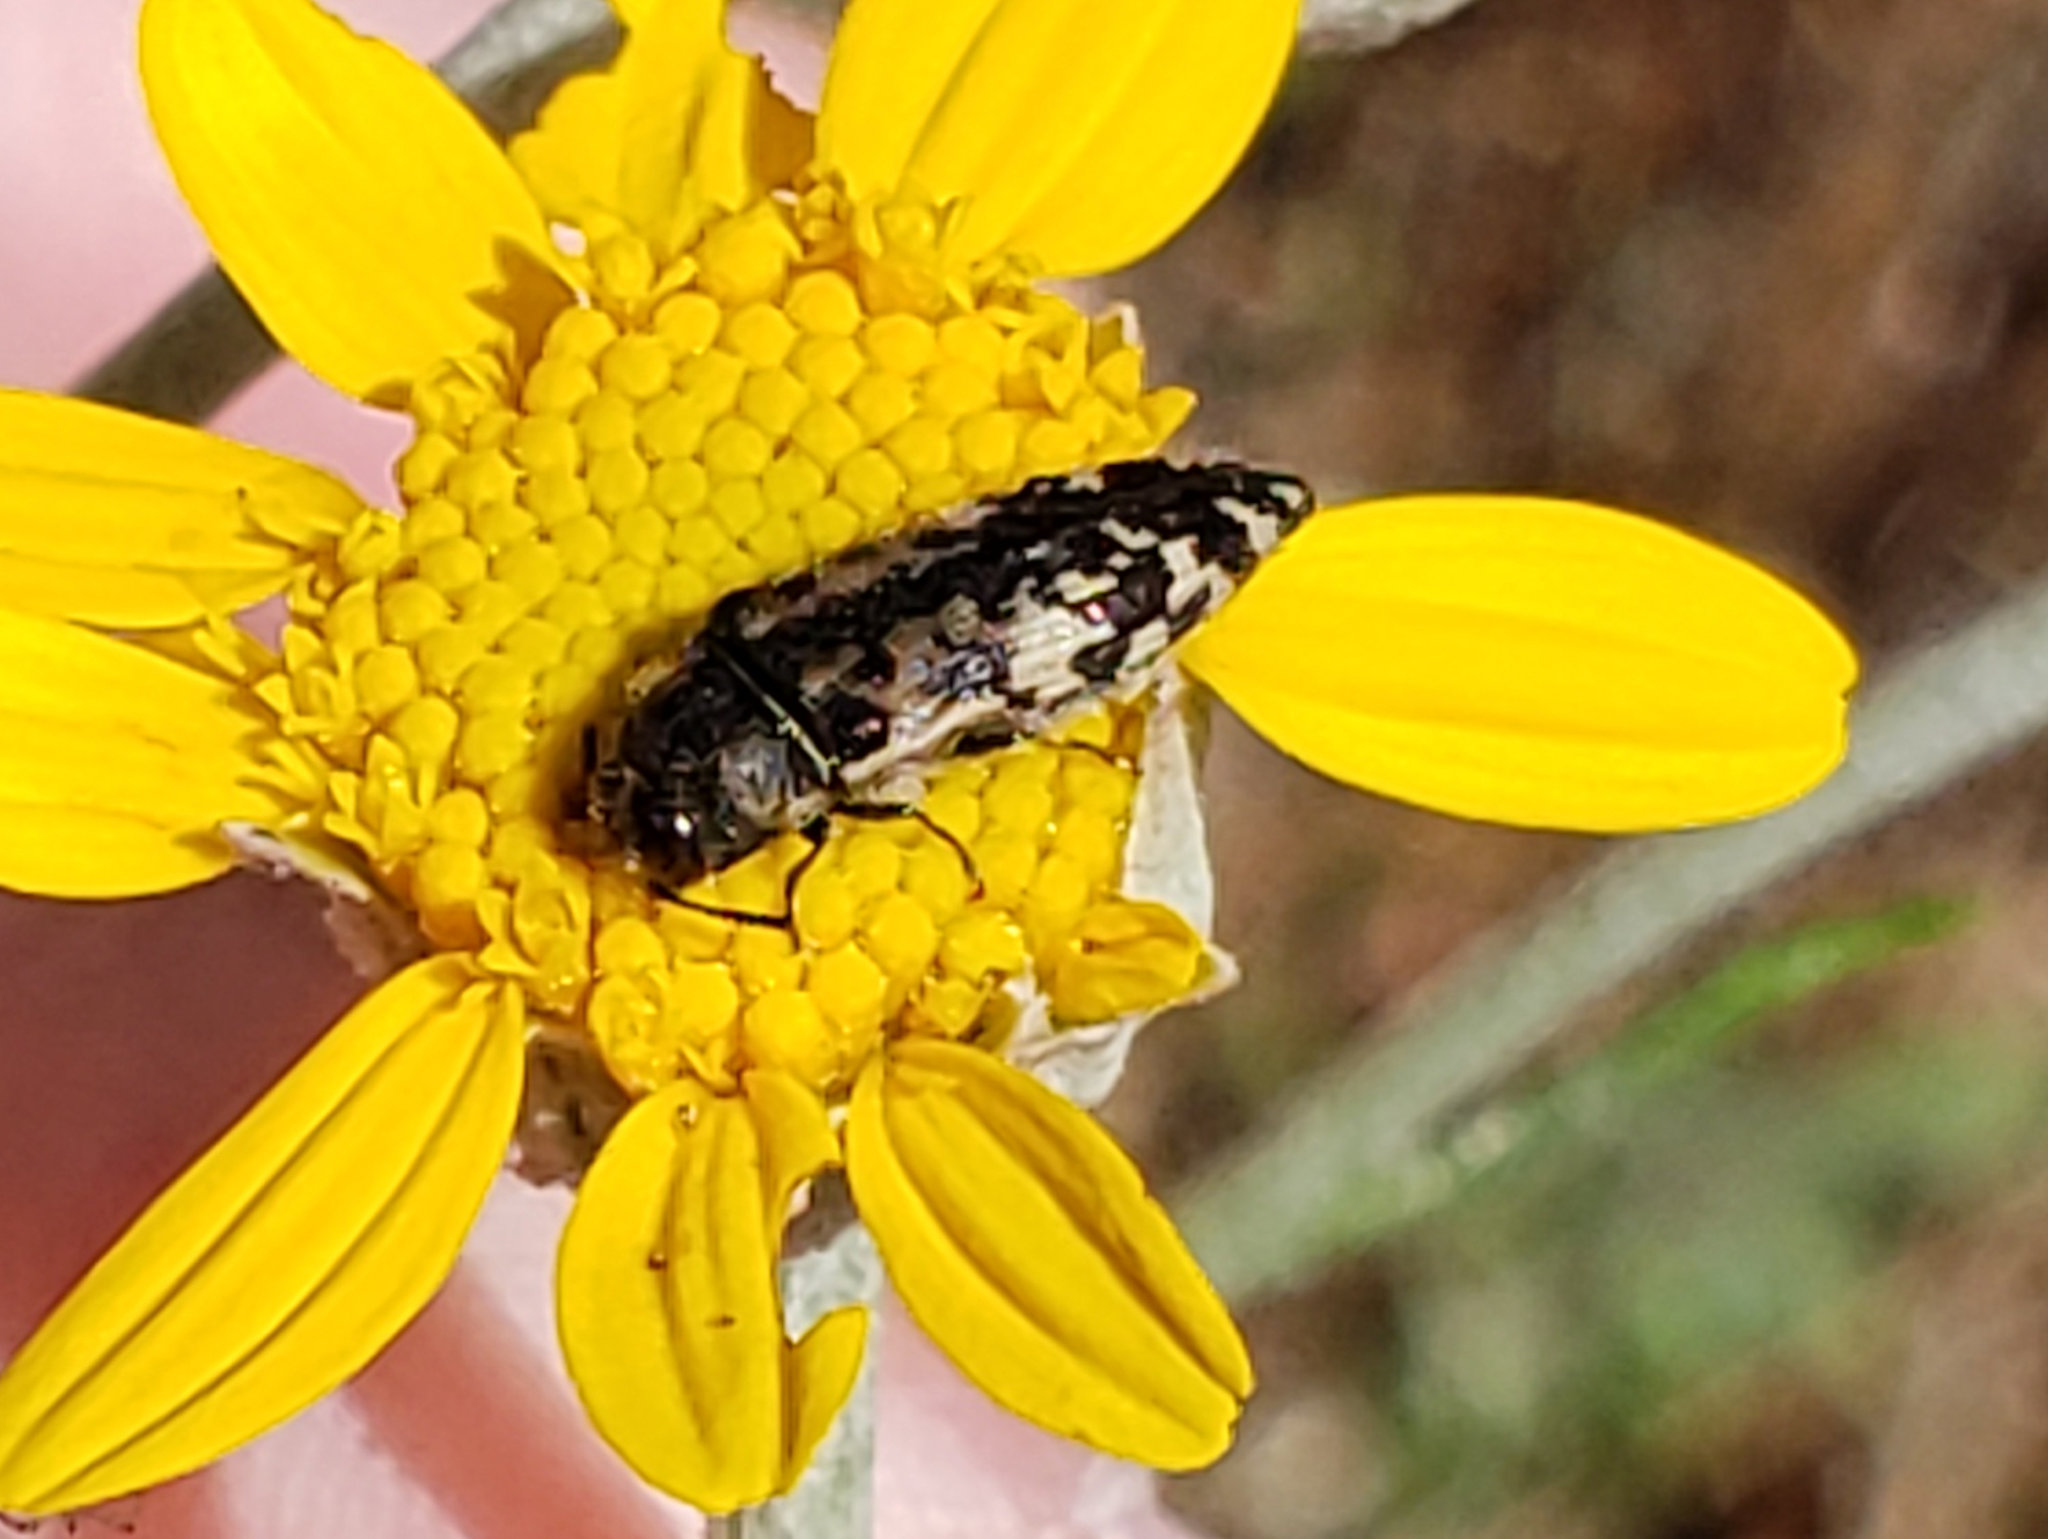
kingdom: Animalia
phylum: Arthropoda
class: Insecta
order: Coleoptera
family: Buprestidae
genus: Acmaeodera
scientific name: Acmaeodera hepburnii
